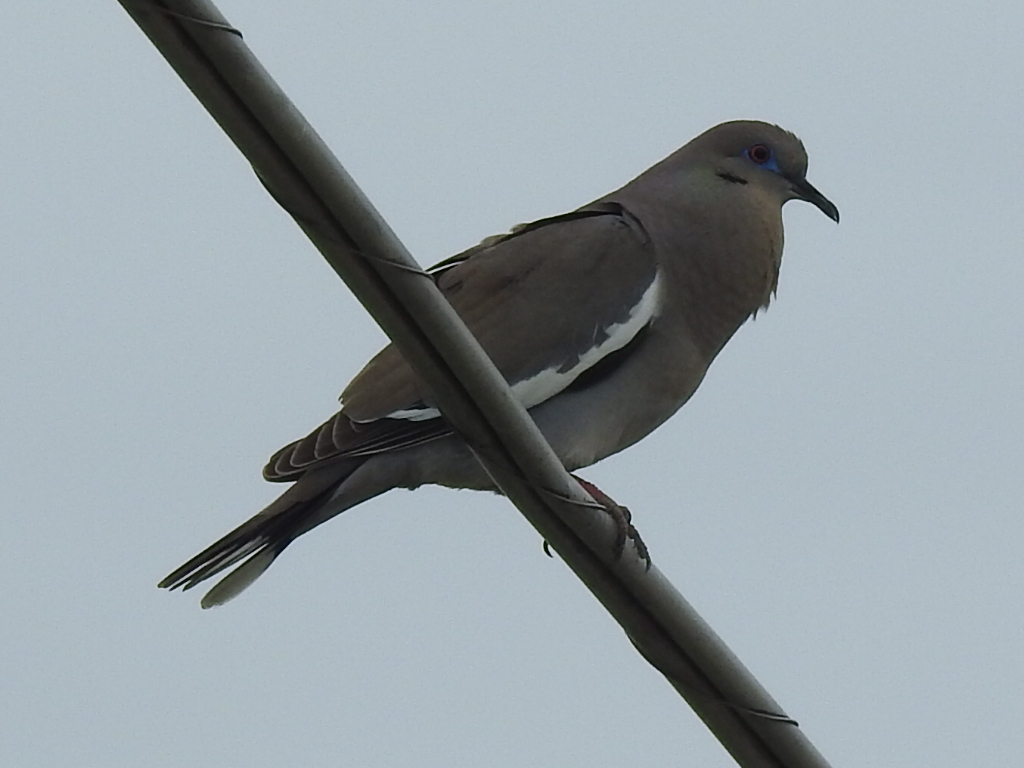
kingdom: Animalia
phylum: Chordata
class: Aves
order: Columbiformes
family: Columbidae
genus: Zenaida
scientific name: Zenaida asiatica
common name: White-winged dove
